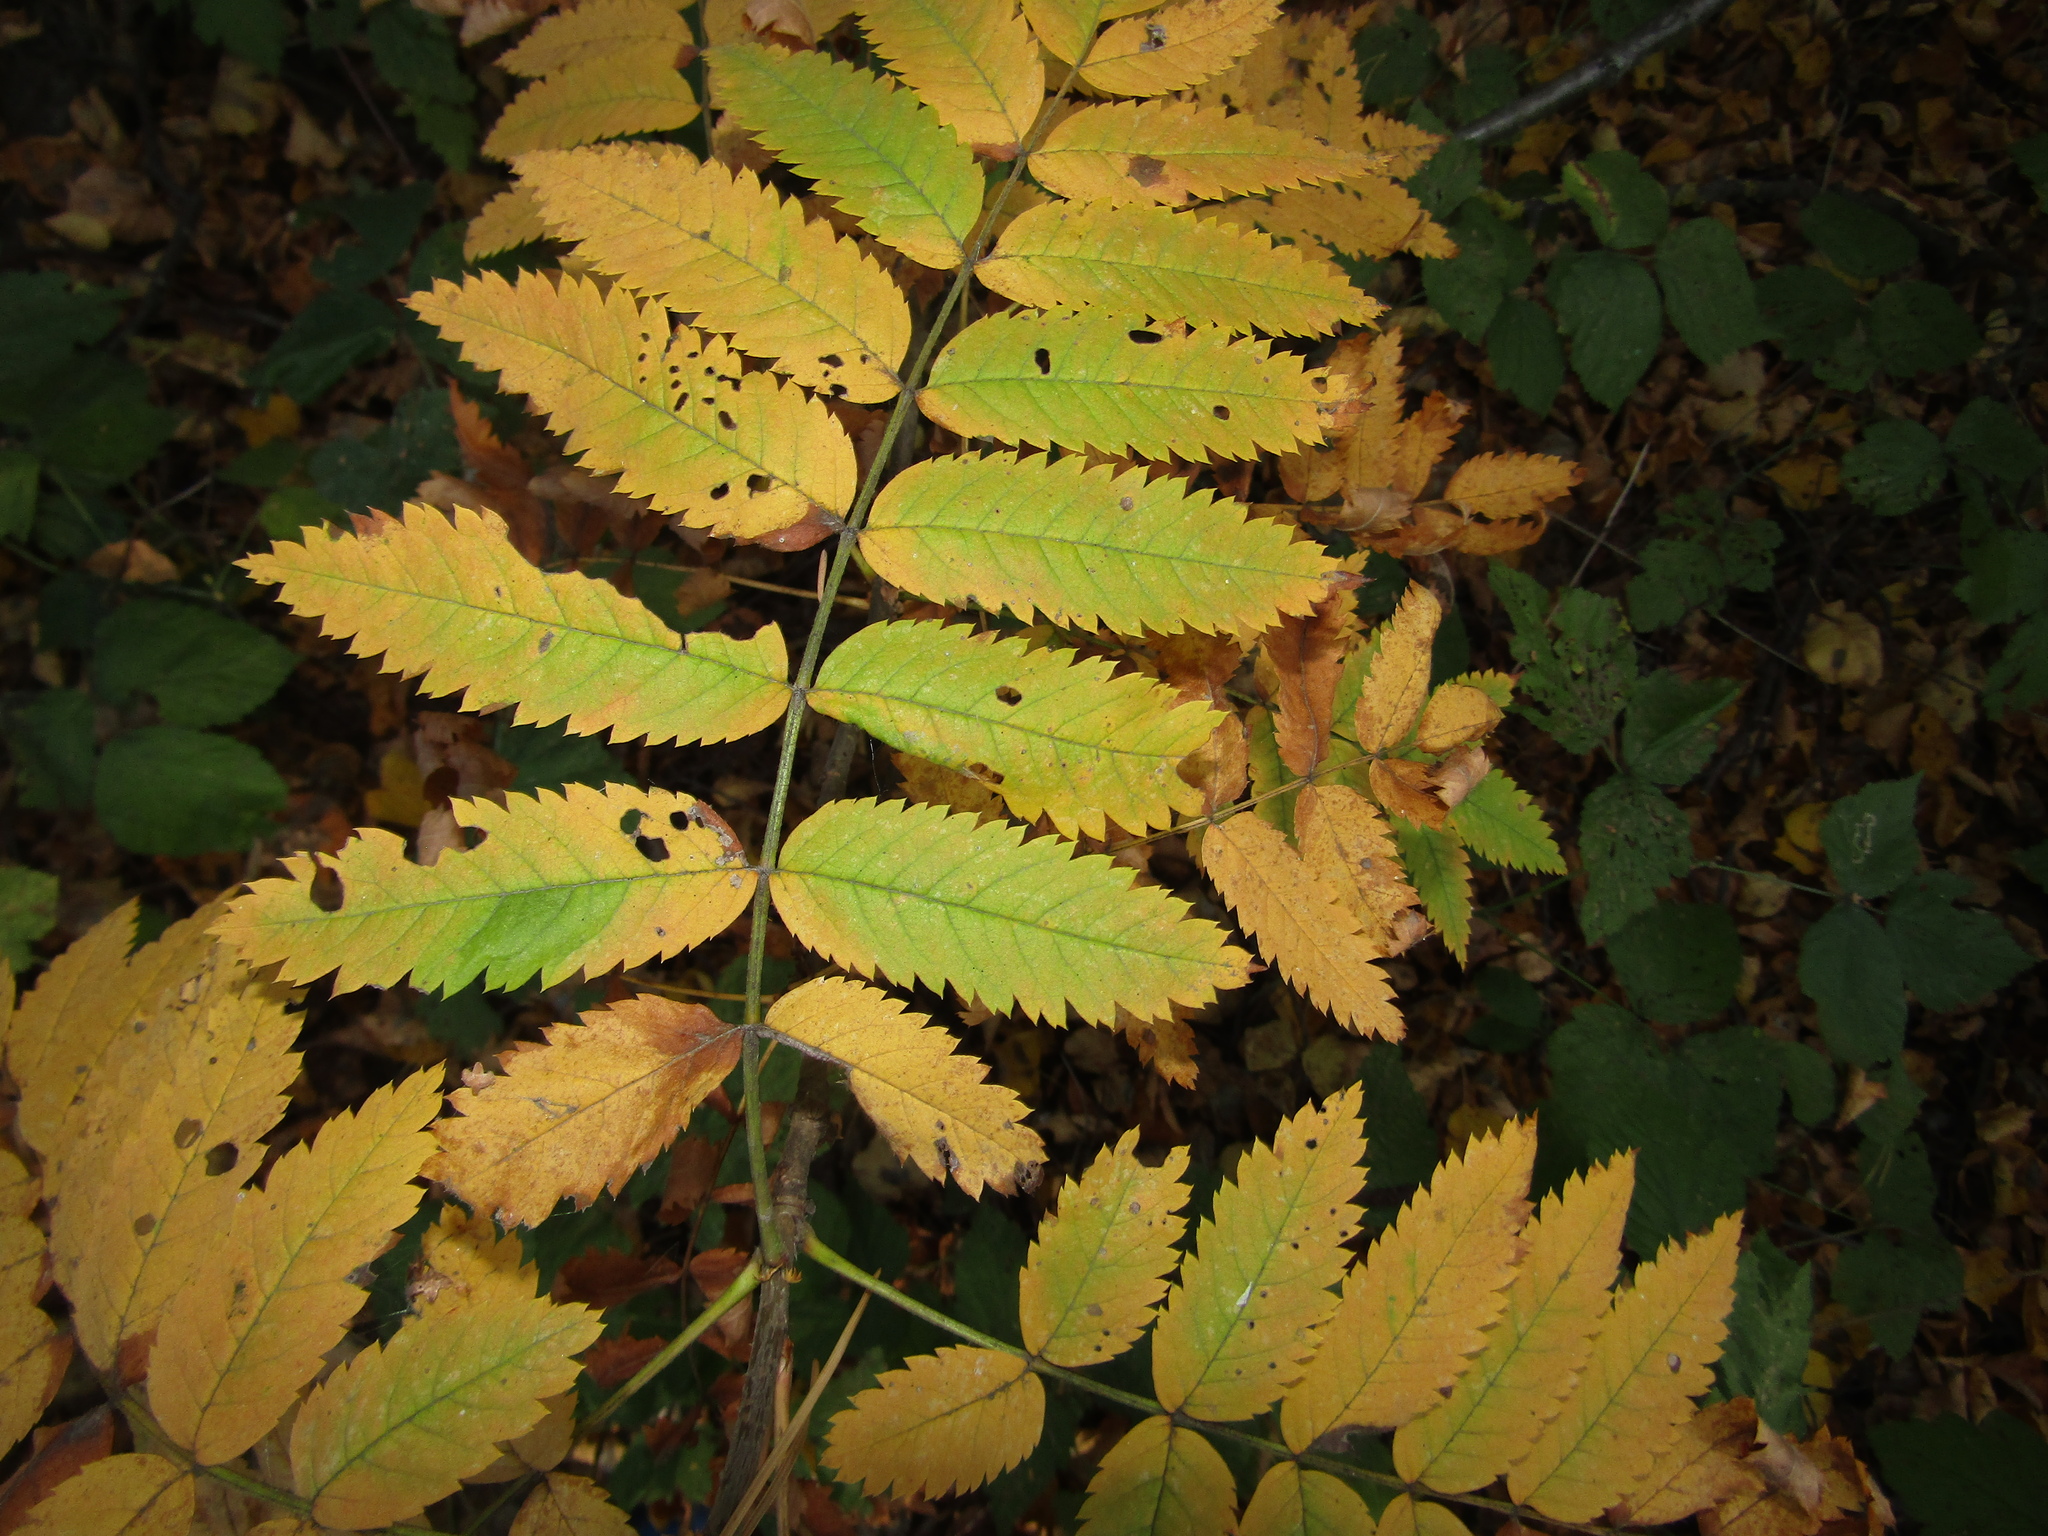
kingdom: Plantae
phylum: Tracheophyta
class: Magnoliopsida
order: Rosales
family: Rosaceae
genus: Sorbus
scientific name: Sorbus aucuparia
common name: Rowan
